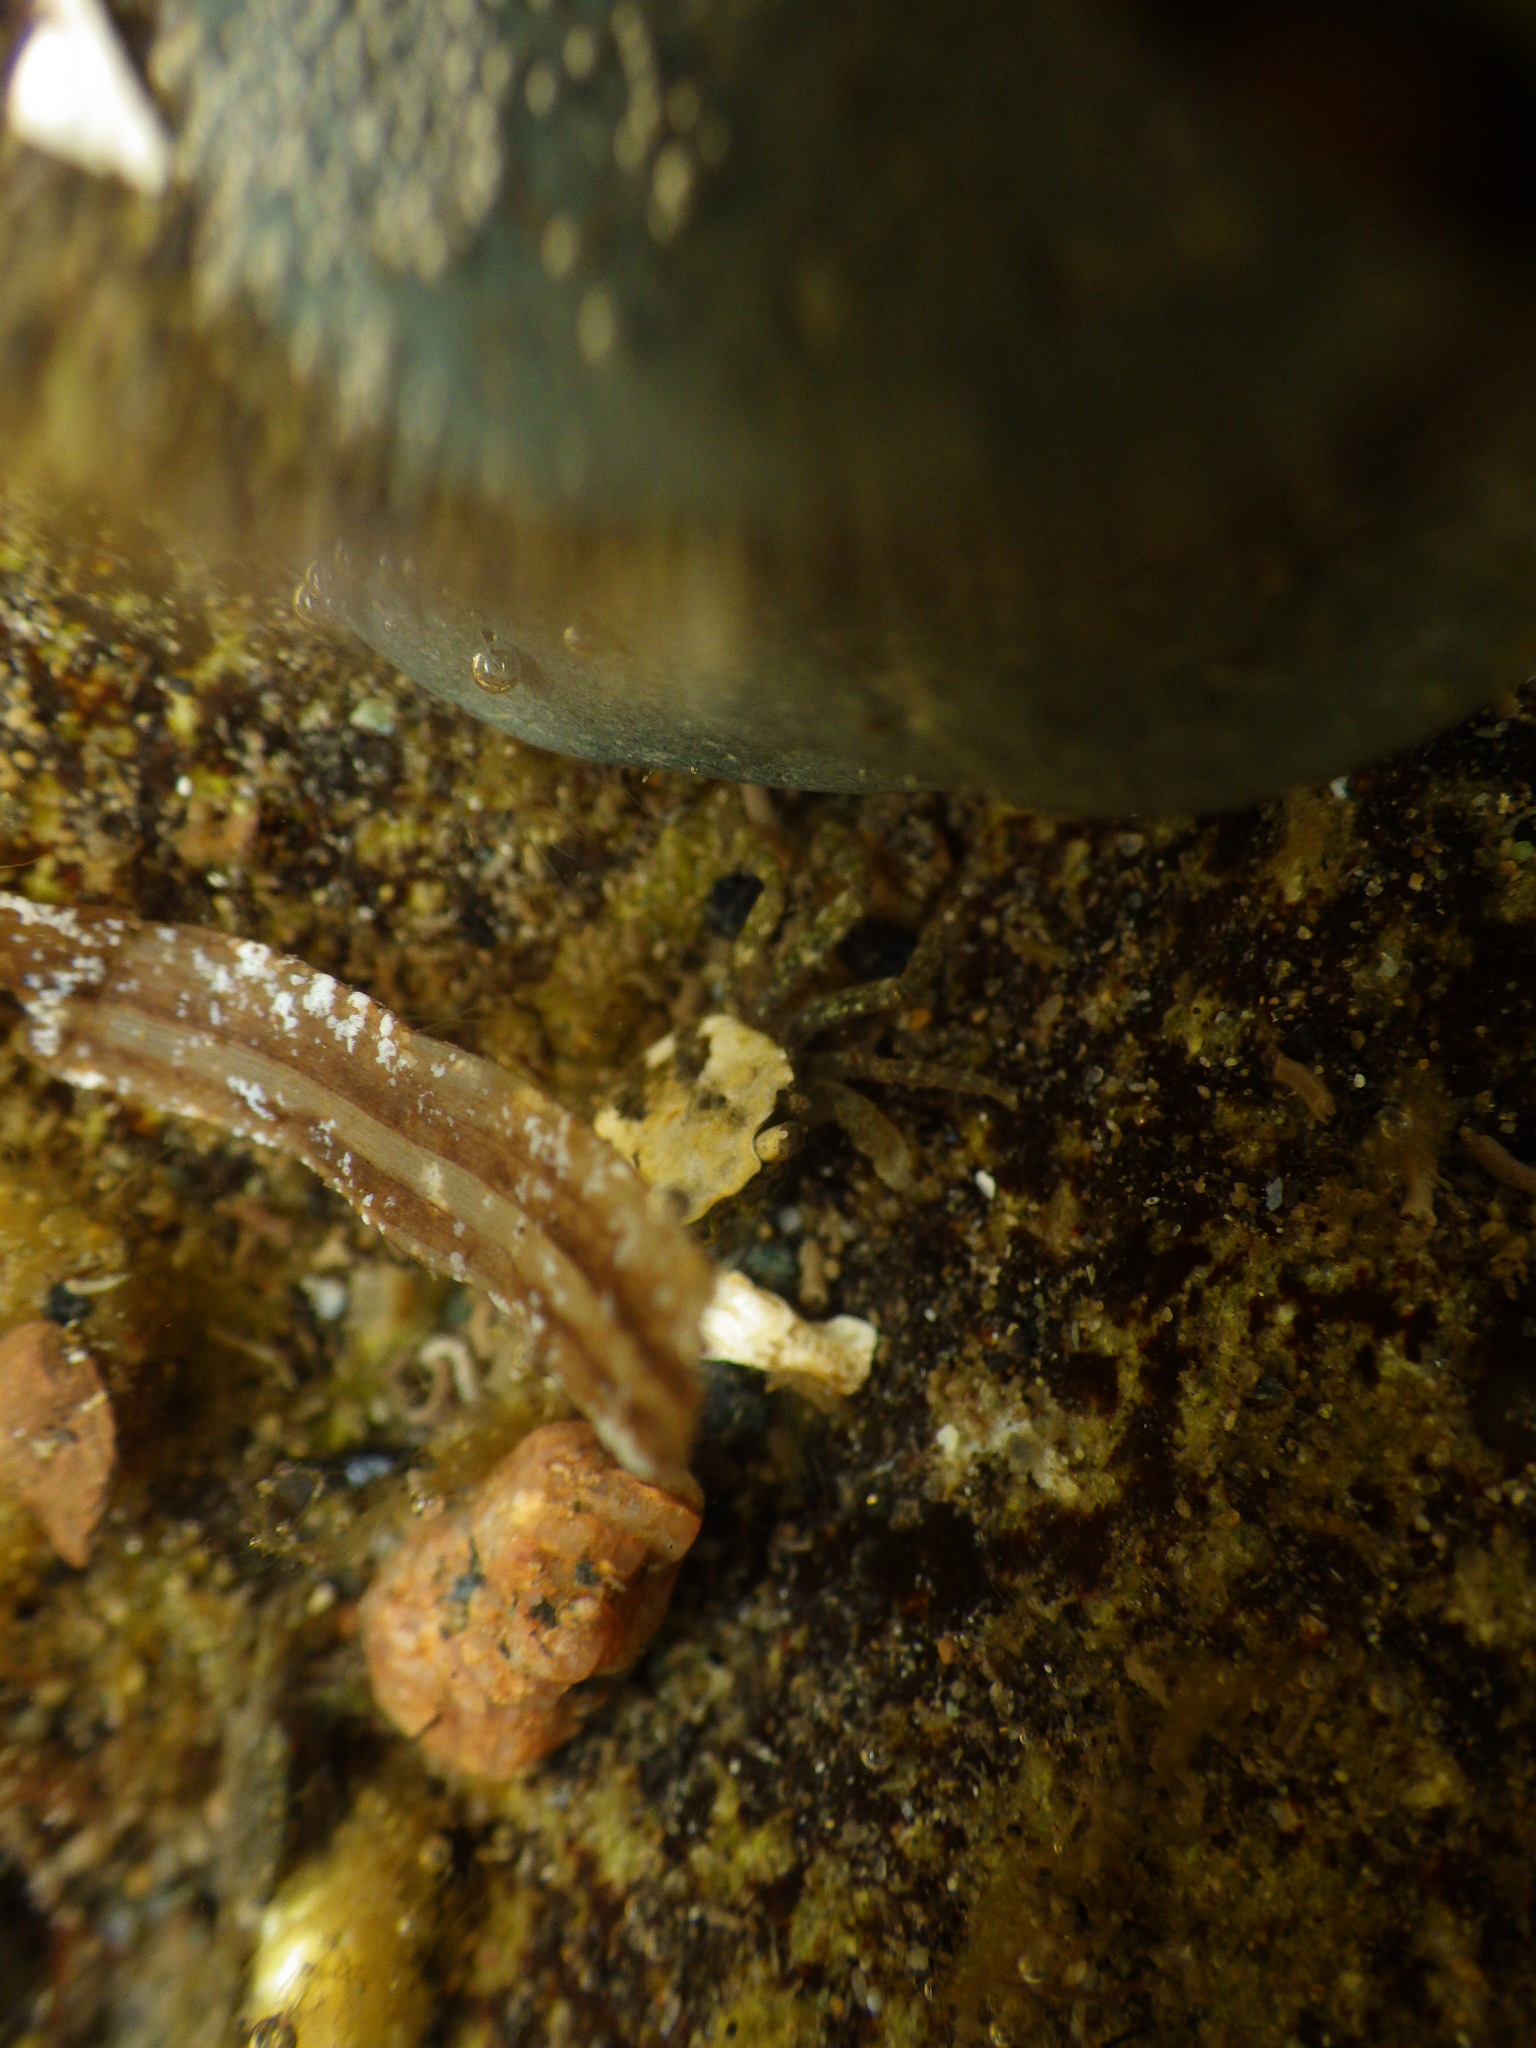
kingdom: Animalia
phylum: Arthropoda
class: Malacostraca
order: Decapoda
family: Varunidae
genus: Hemigrapsus
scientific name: Hemigrapsus oregonensis
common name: Yellow shore crab
